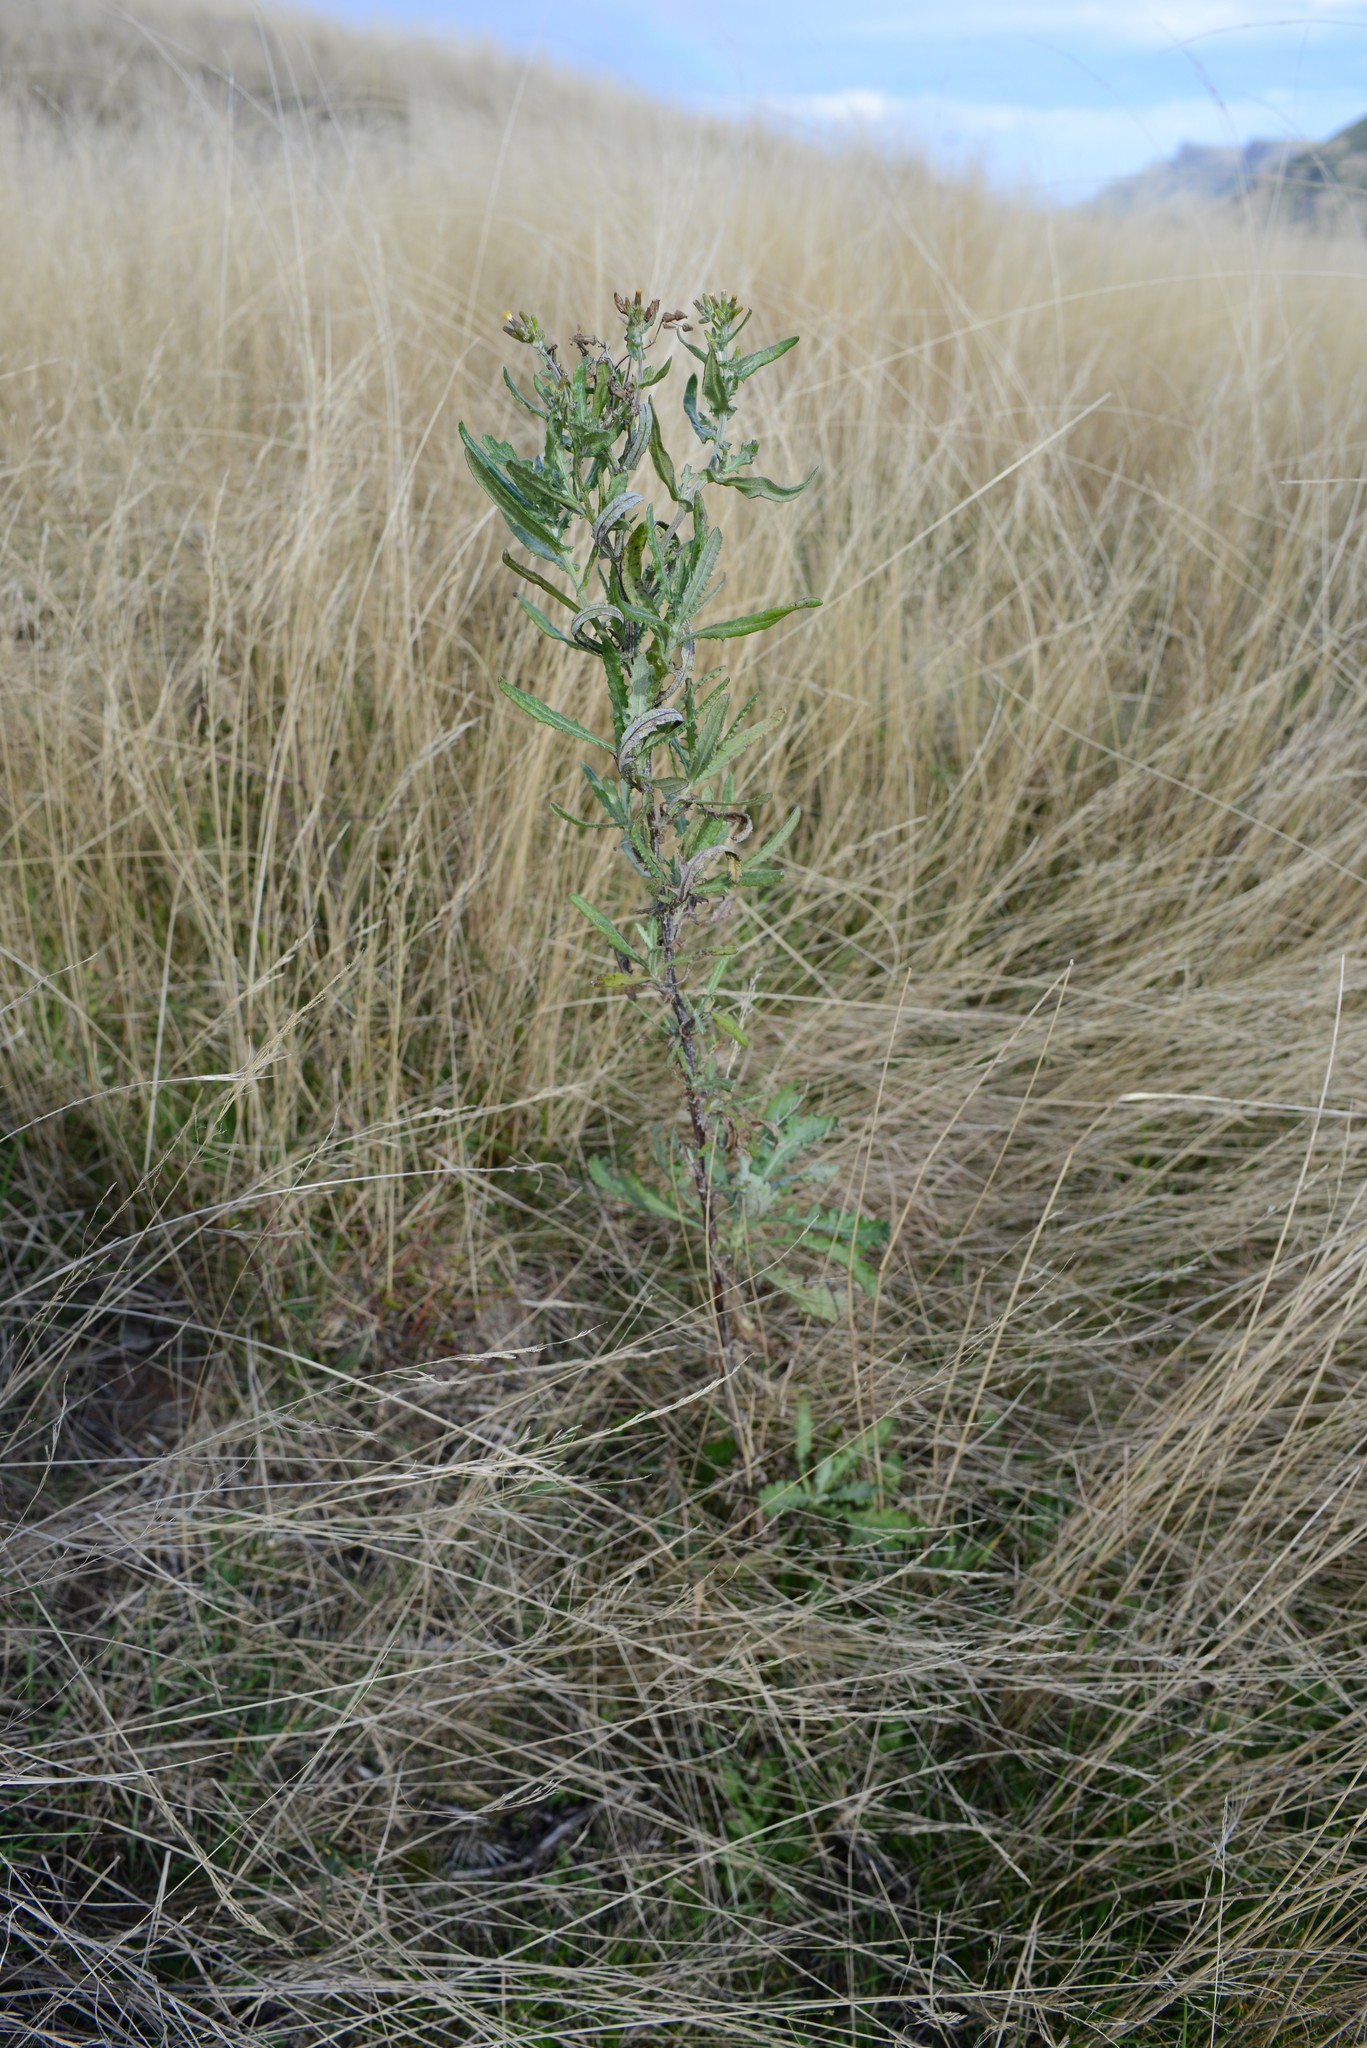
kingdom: Plantae
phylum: Tracheophyta
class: Magnoliopsida
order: Asterales
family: Asteraceae
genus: Senecio
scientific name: Senecio glomeratus
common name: Cutleaf burnweed
